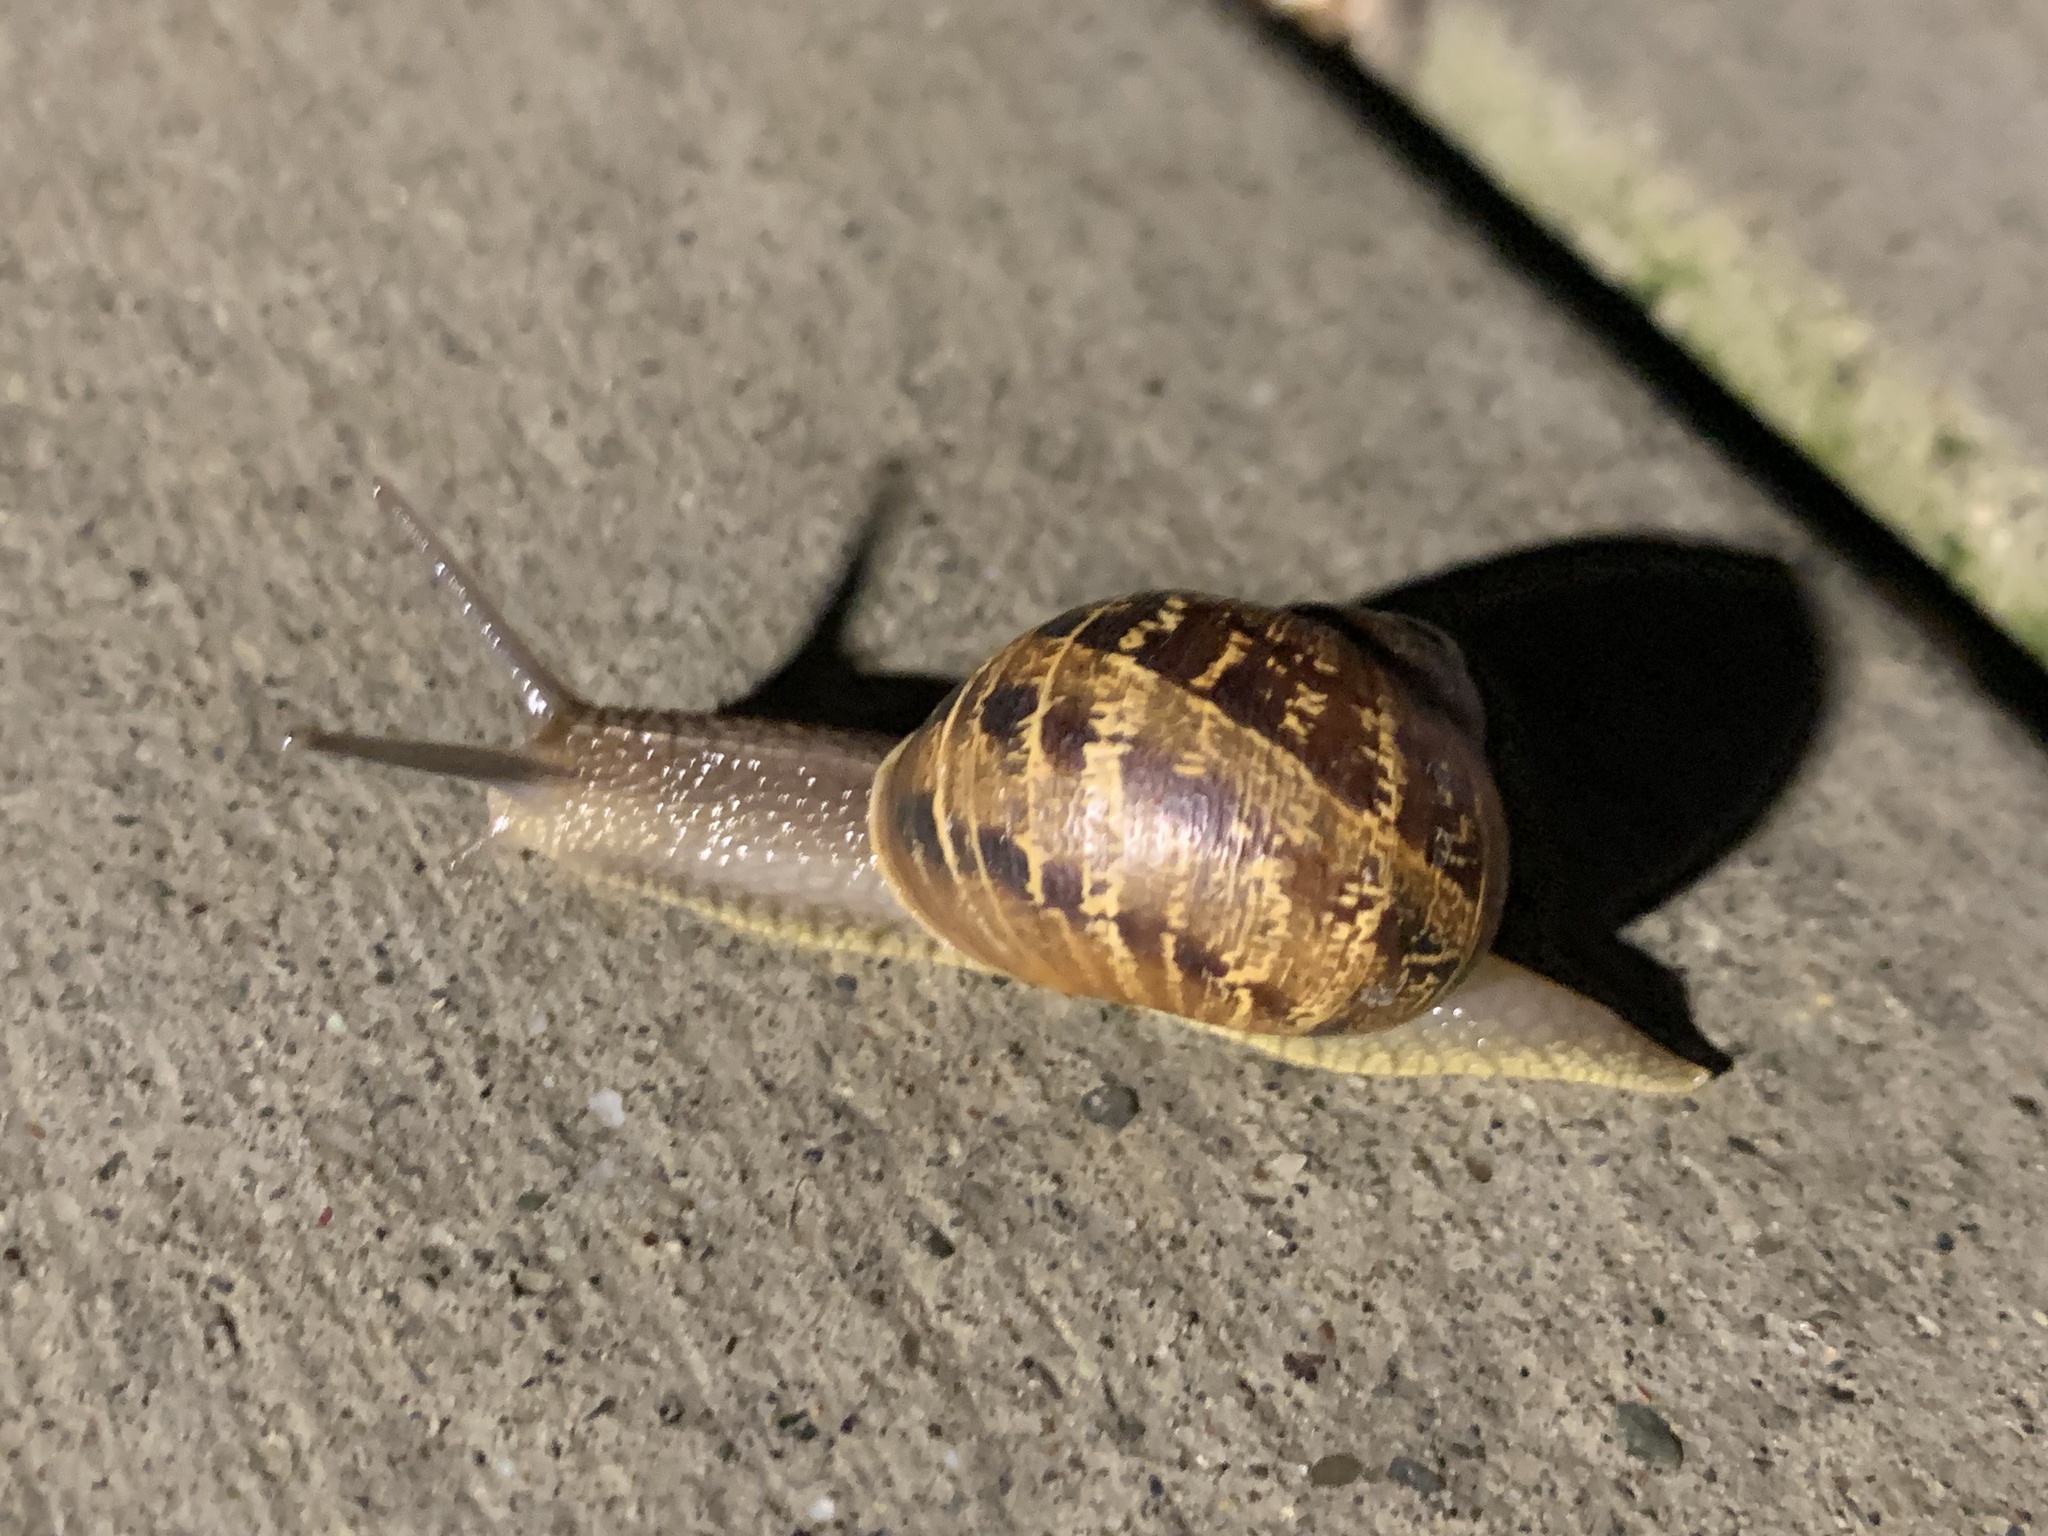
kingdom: Animalia
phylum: Mollusca
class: Gastropoda
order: Stylommatophora
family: Helicidae
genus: Cornu
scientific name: Cornu aspersum
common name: Brown garden snail
